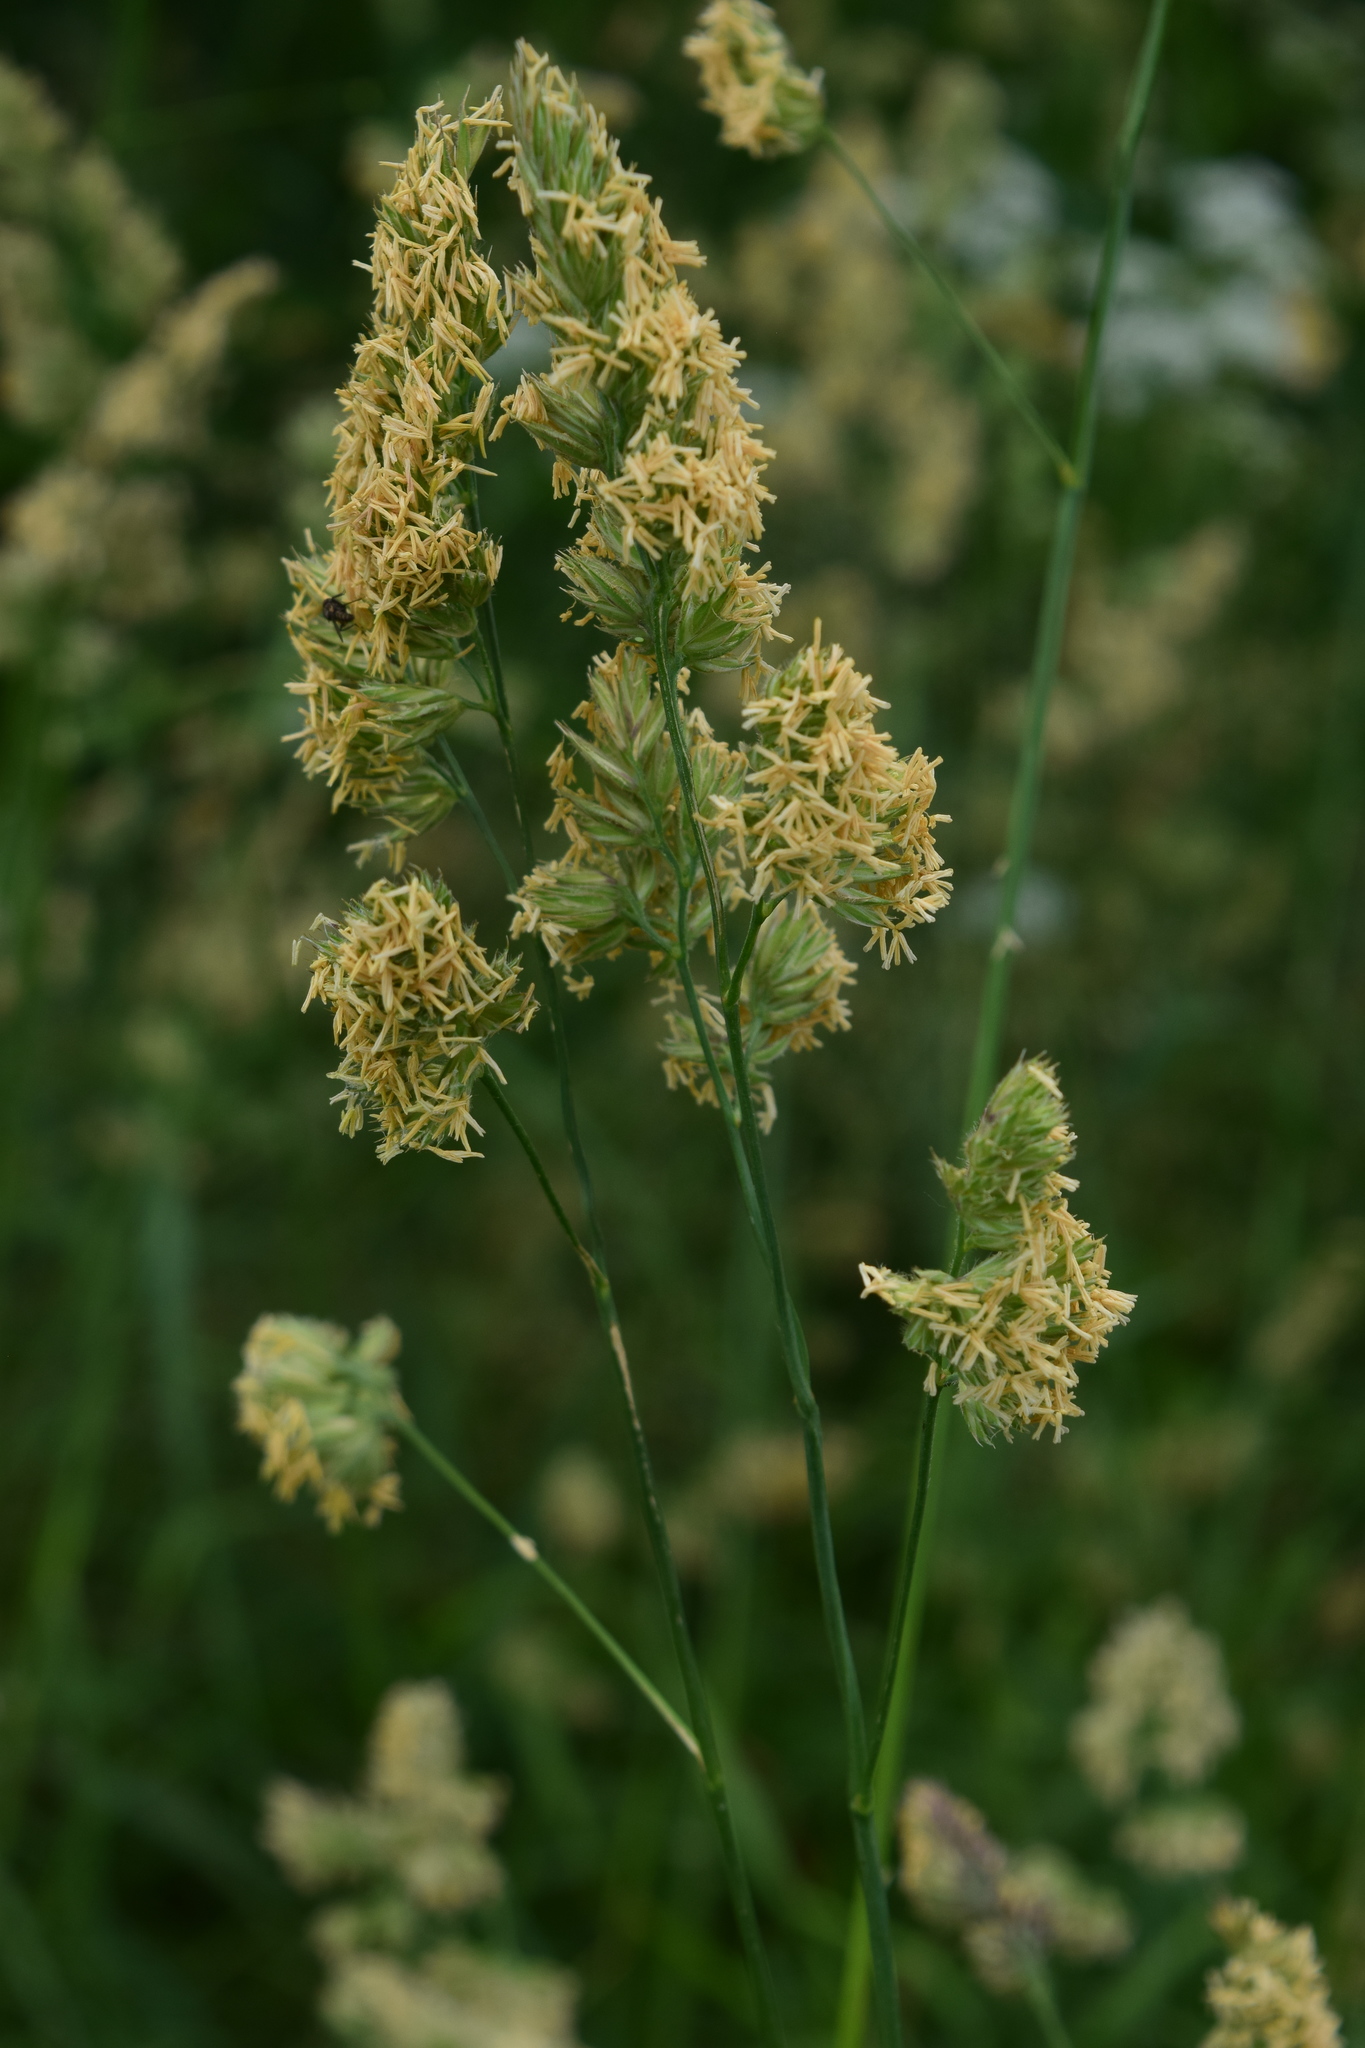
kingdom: Plantae
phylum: Tracheophyta
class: Liliopsida
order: Poales
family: Poaceae
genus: Dactylis
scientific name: Dactylis glomerata
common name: Orchardgrass
